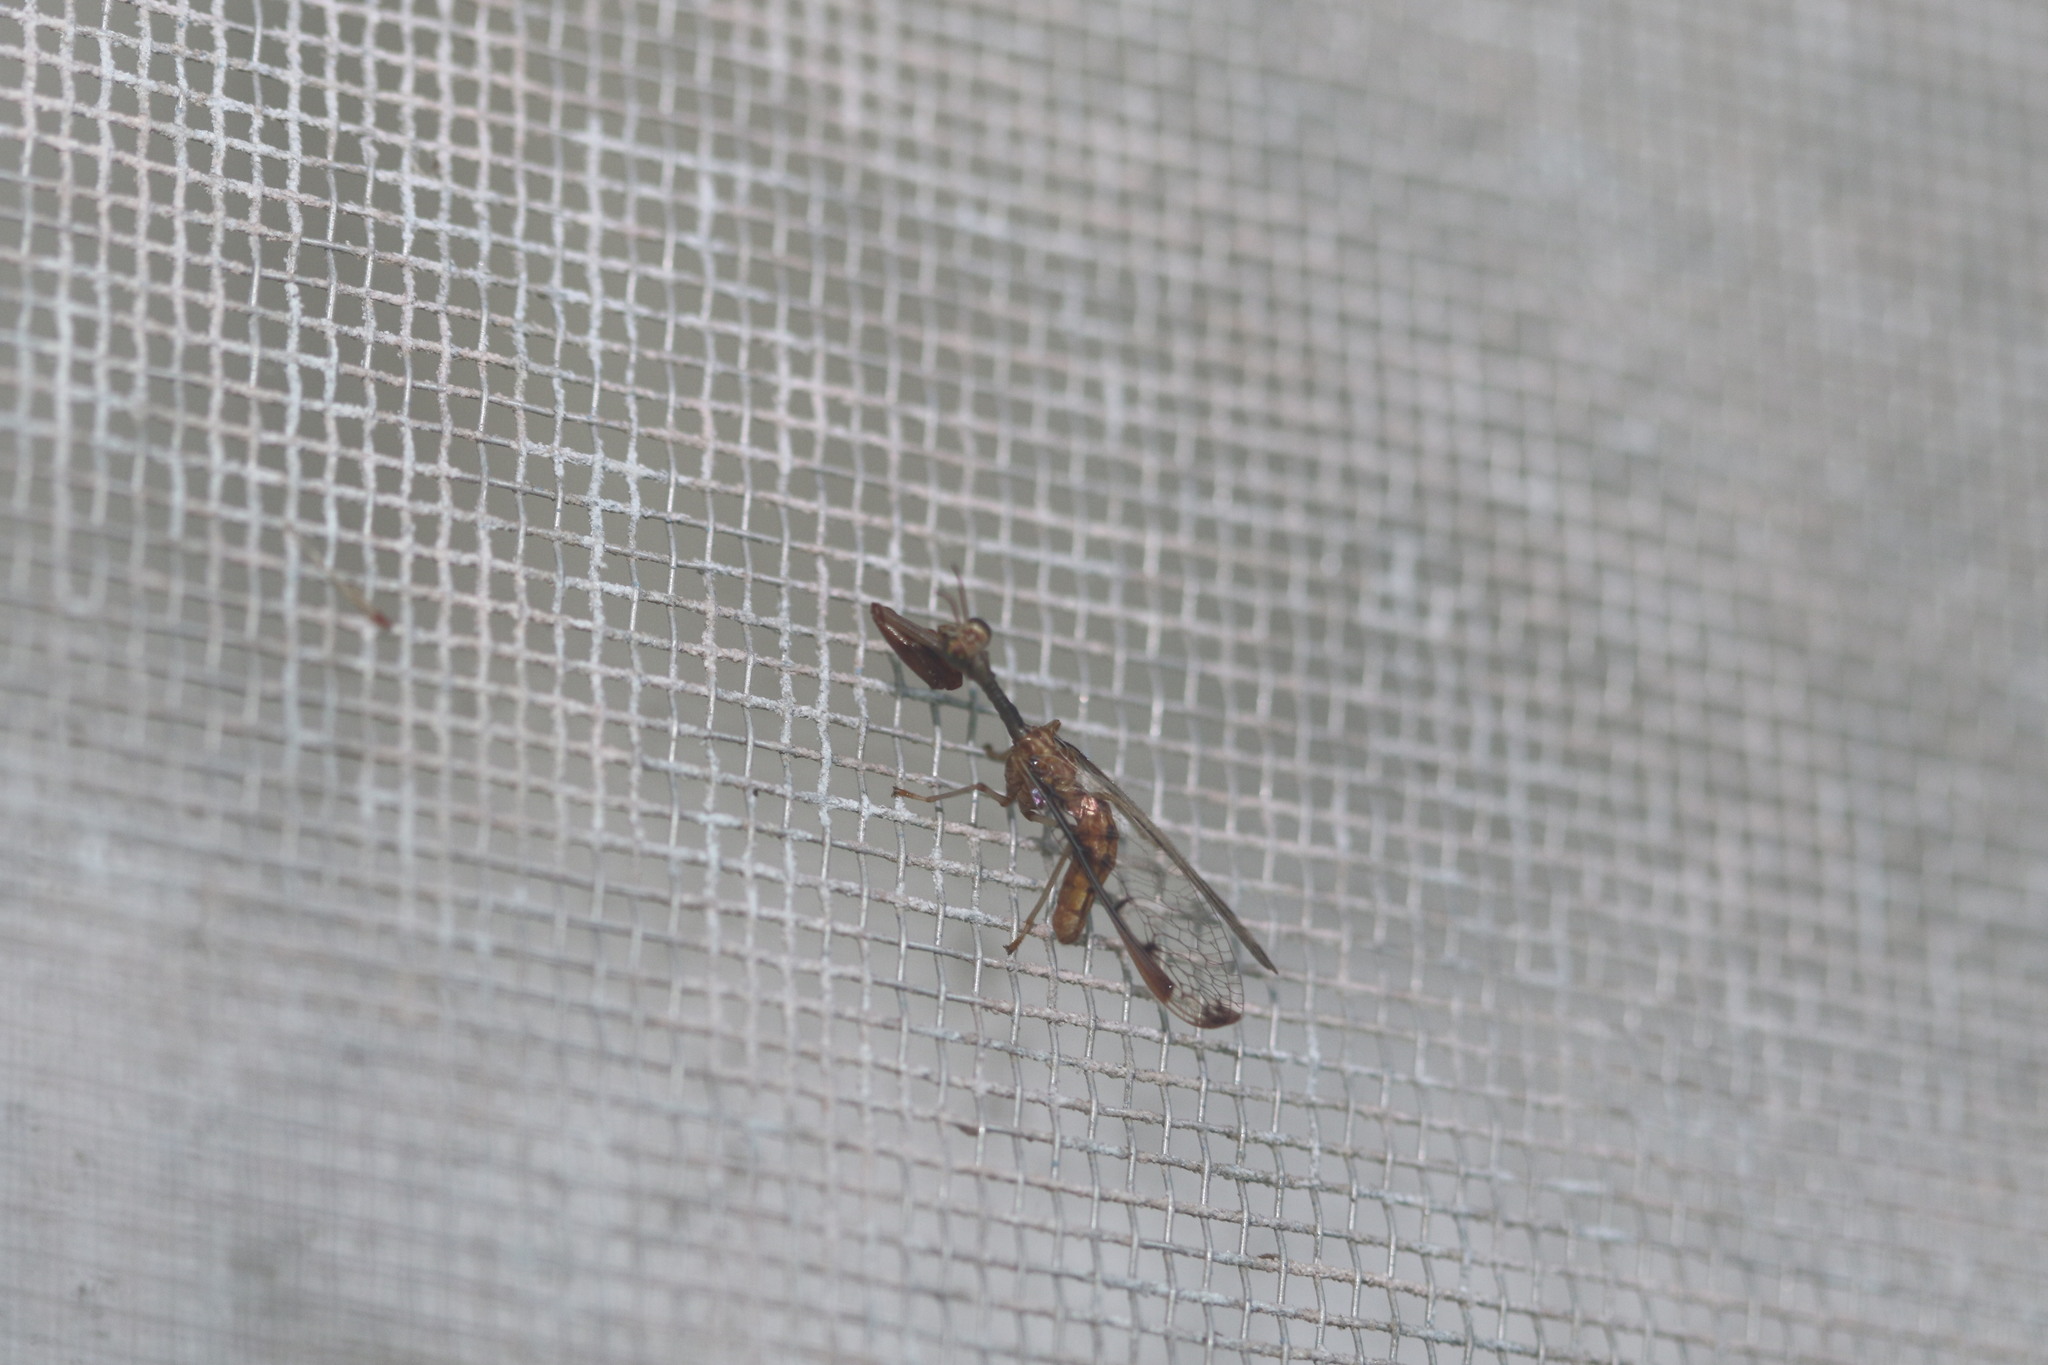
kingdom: Animalia
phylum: Arthropoda
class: Insecta
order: Neuroptera
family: Mantispidae
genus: Dicromantispa
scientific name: Dicromantispa interrupta
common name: Four-spotted mantidfly
